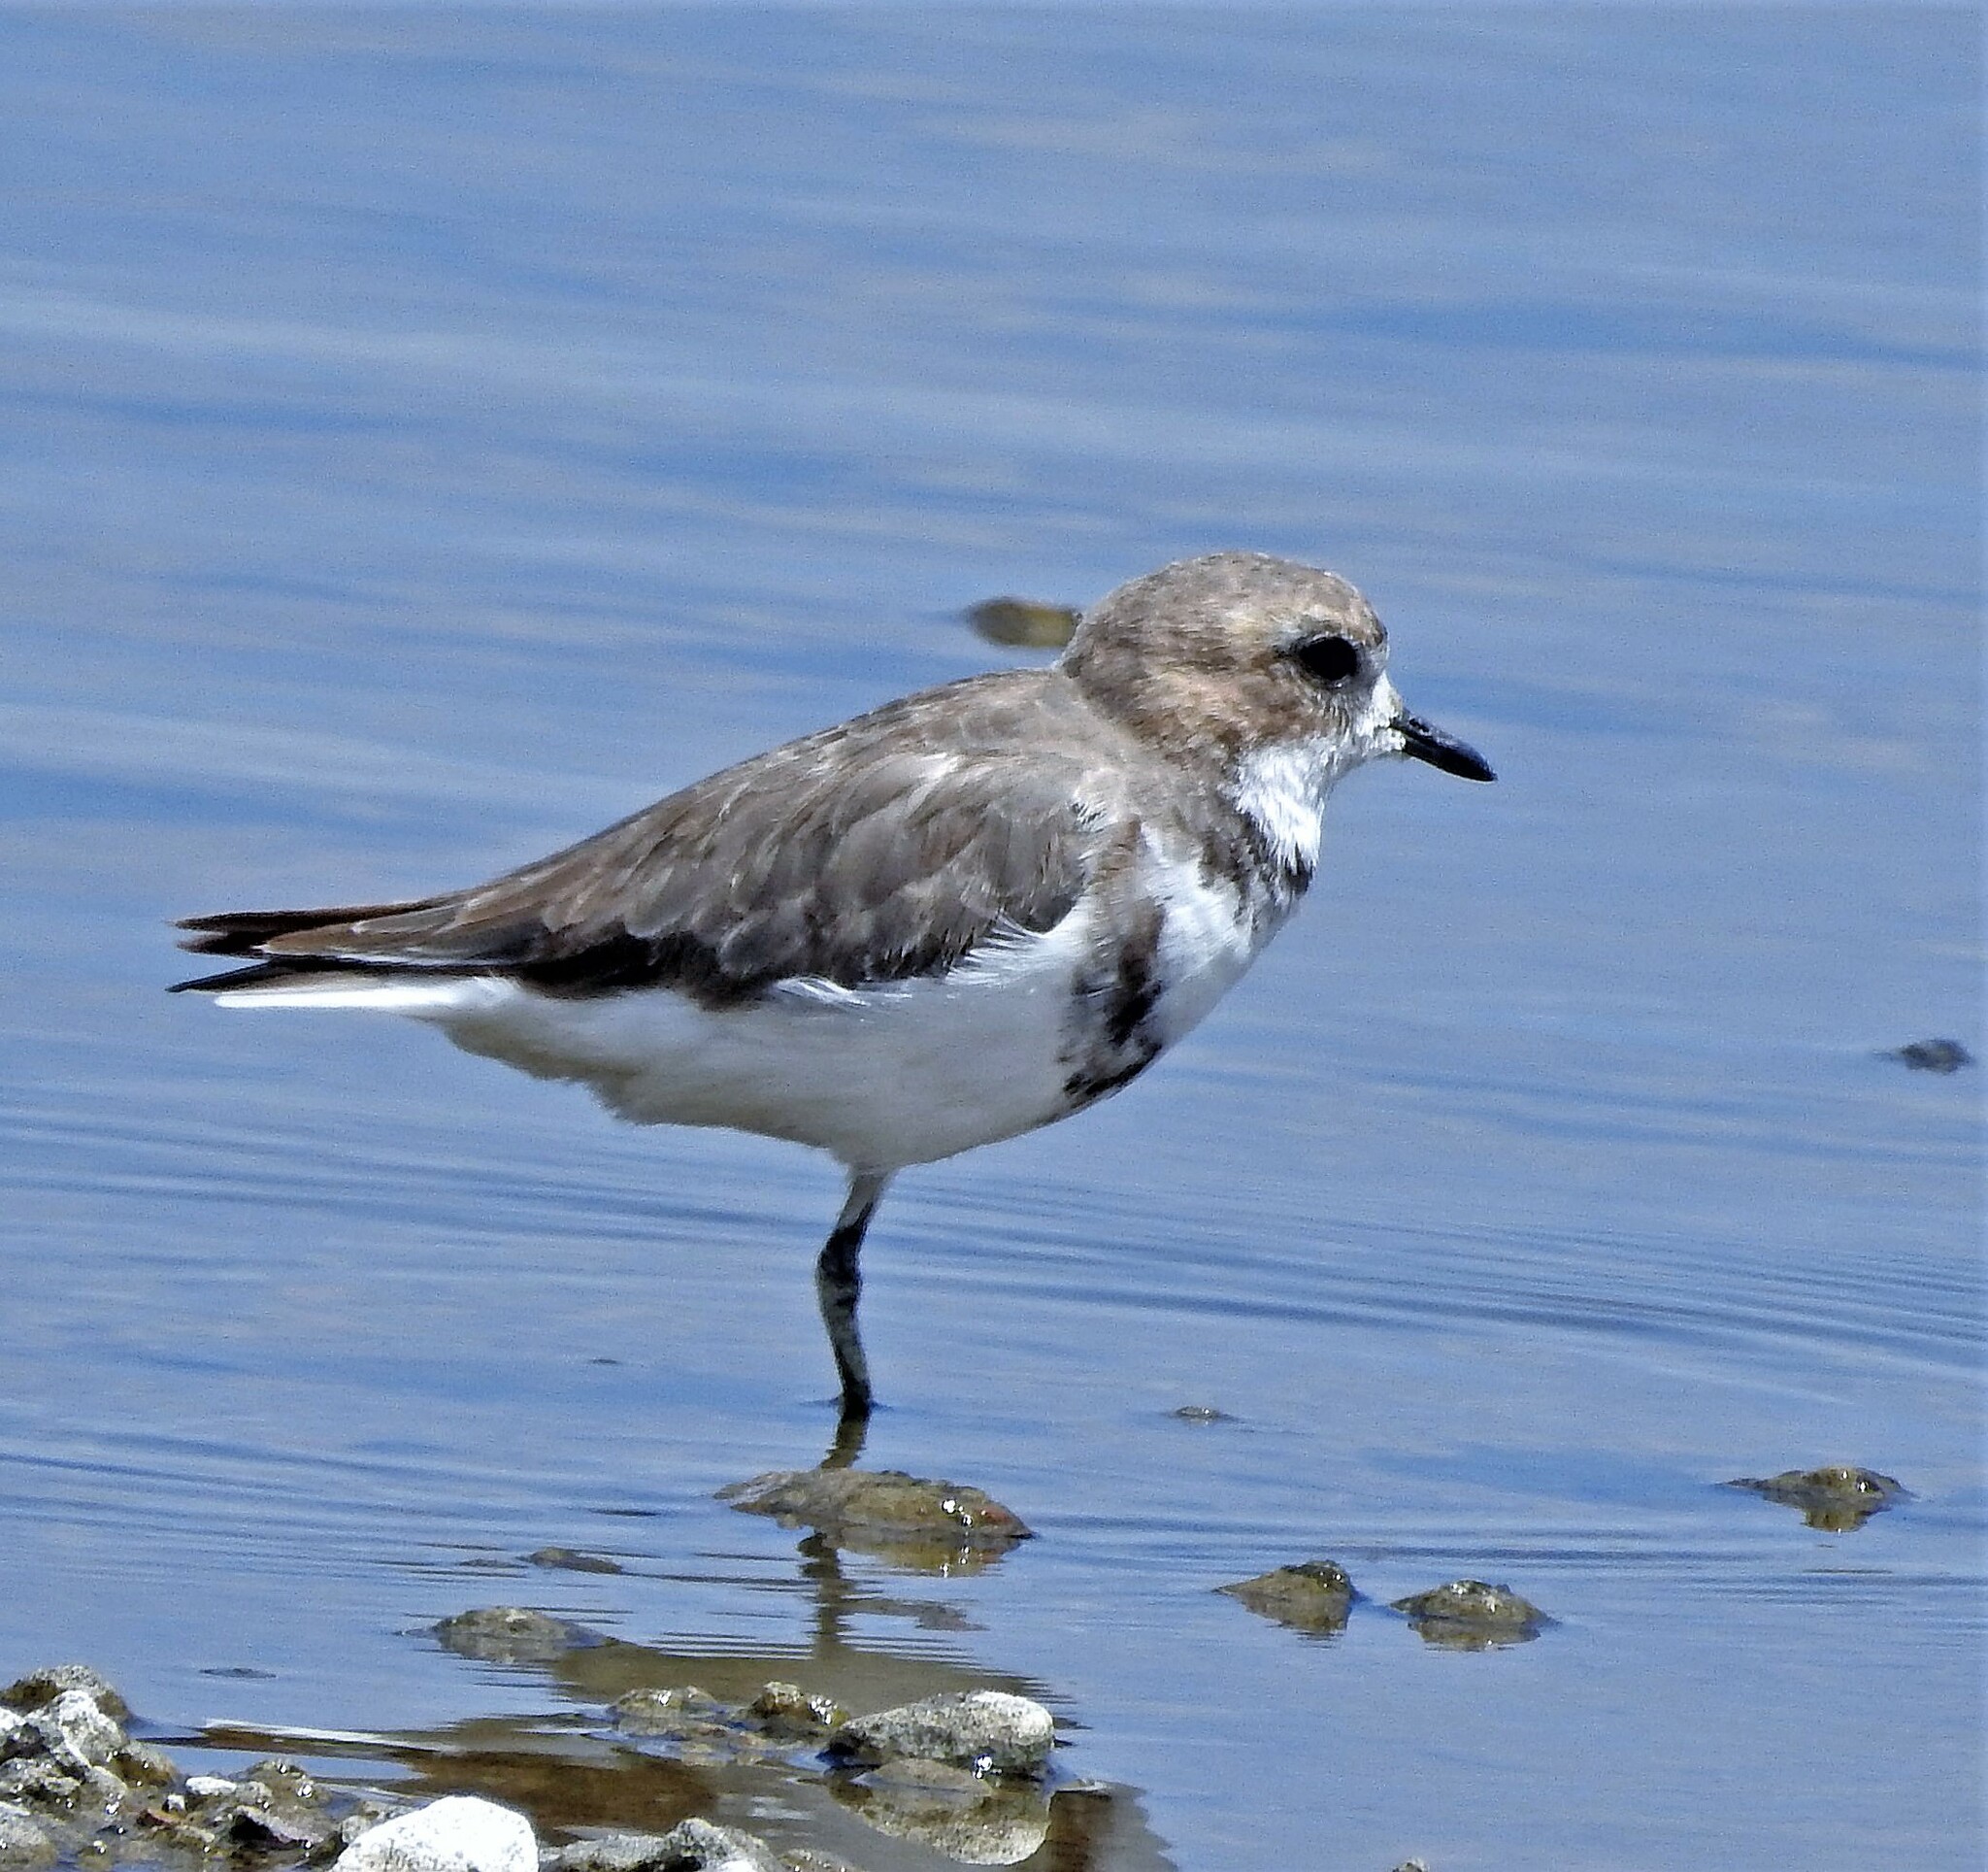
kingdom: Animalia
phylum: Chordata
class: Aves
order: Charadriiformes
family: Charadriidae
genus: Anarhynchus
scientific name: Anarhynchus
